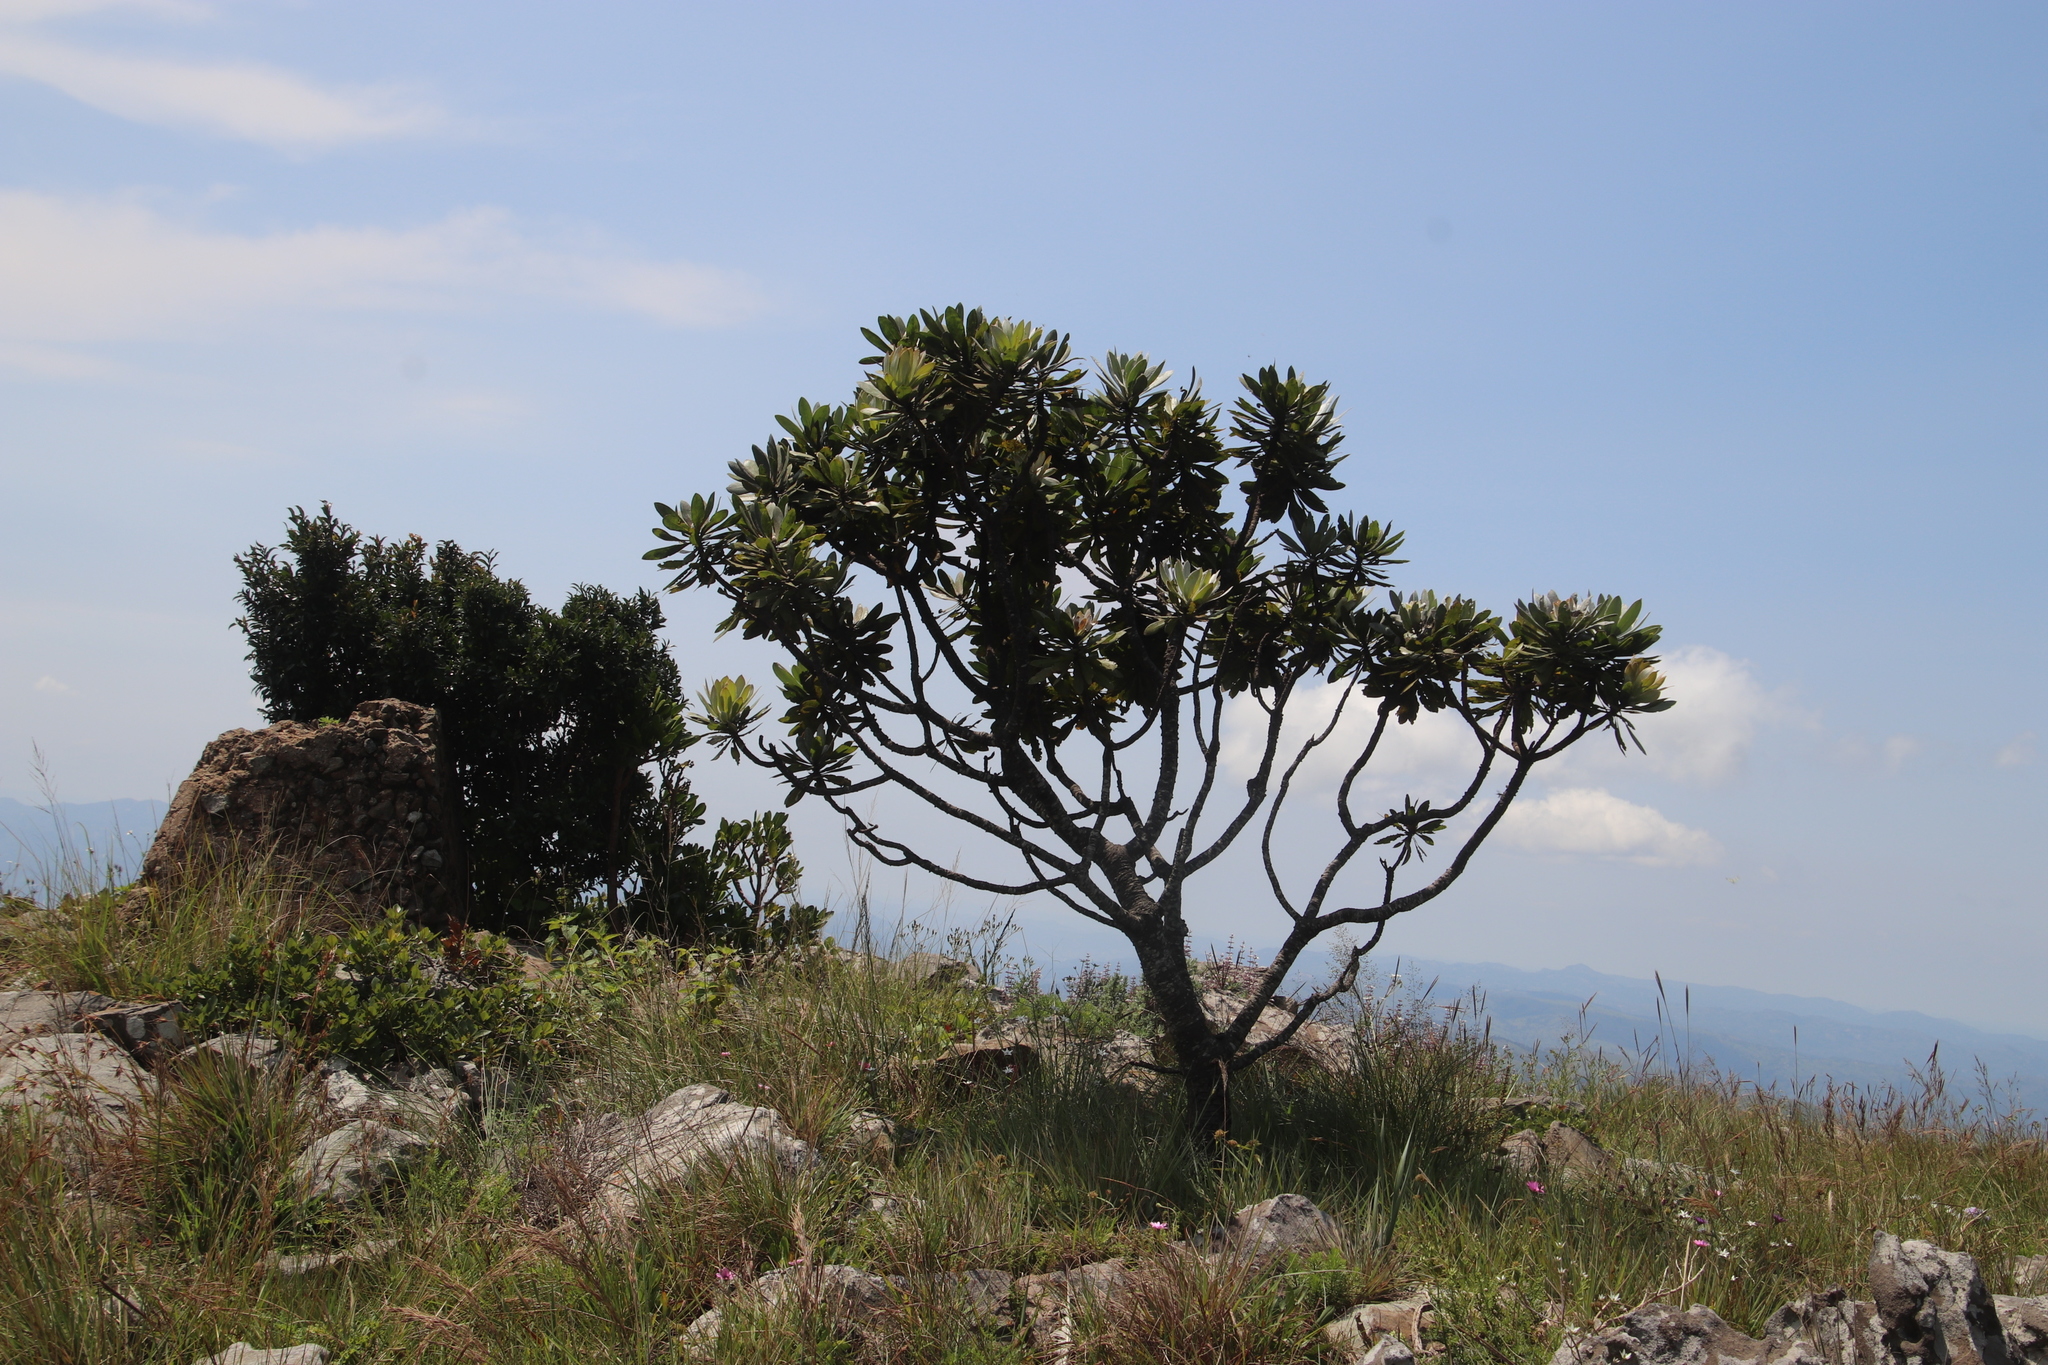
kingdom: Plantae
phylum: Tracheophyta
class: Magnoliopsida
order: Proteales
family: Proteaceae
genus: Protea
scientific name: Protea roupelliae
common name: Silver sugarbush
